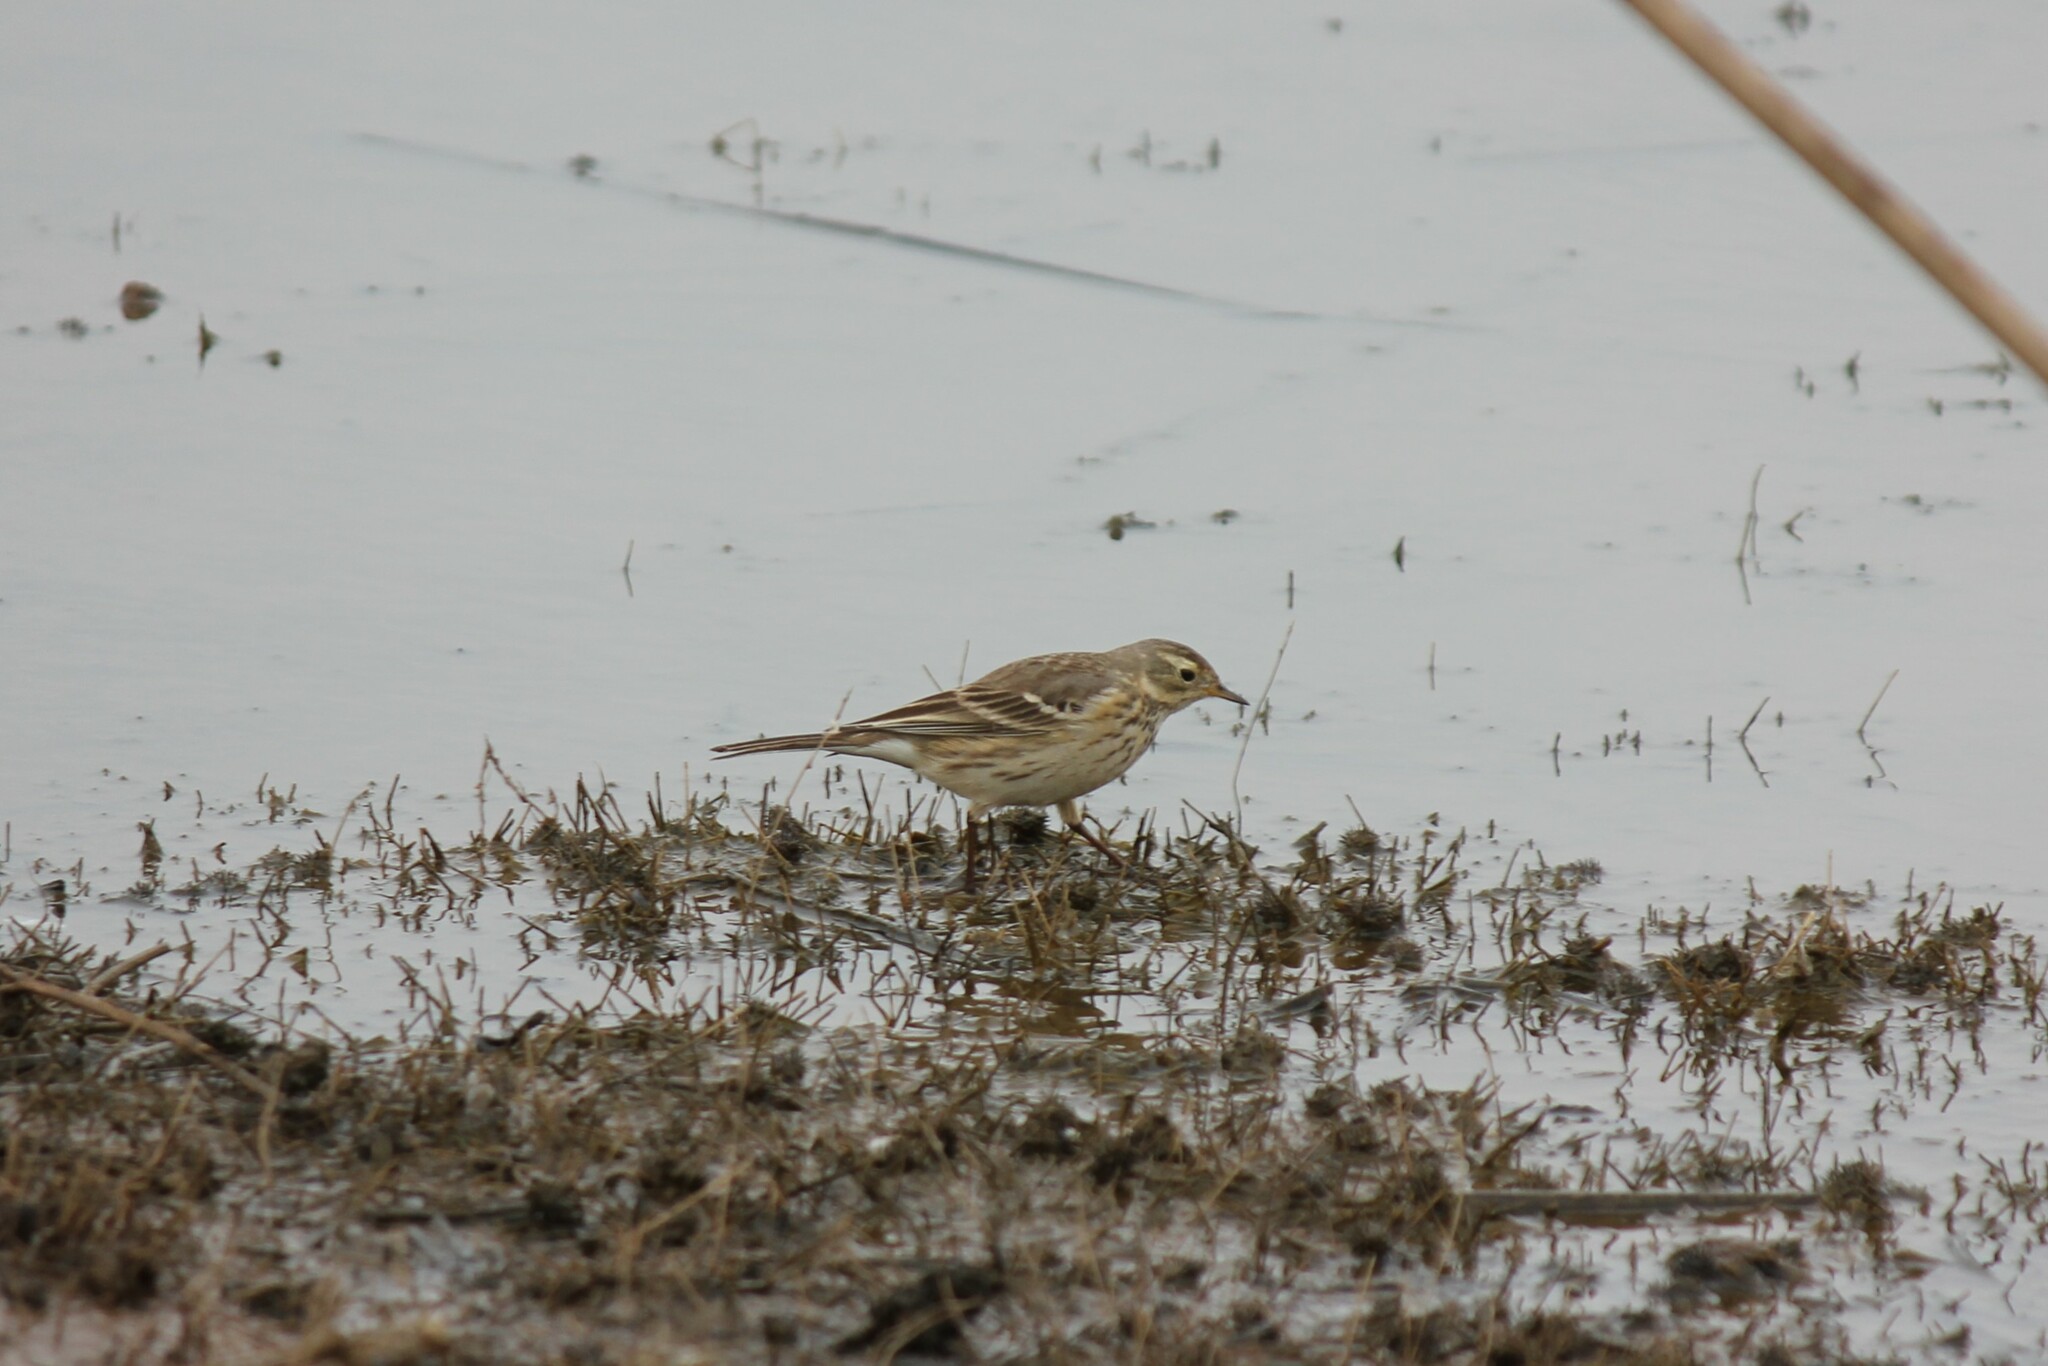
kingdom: Animalia
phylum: Chordata
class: Aves
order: Passeriformes
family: Motacillidae
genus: Anthus
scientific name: Anthus rubescens
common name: Buff-bellied pipit
